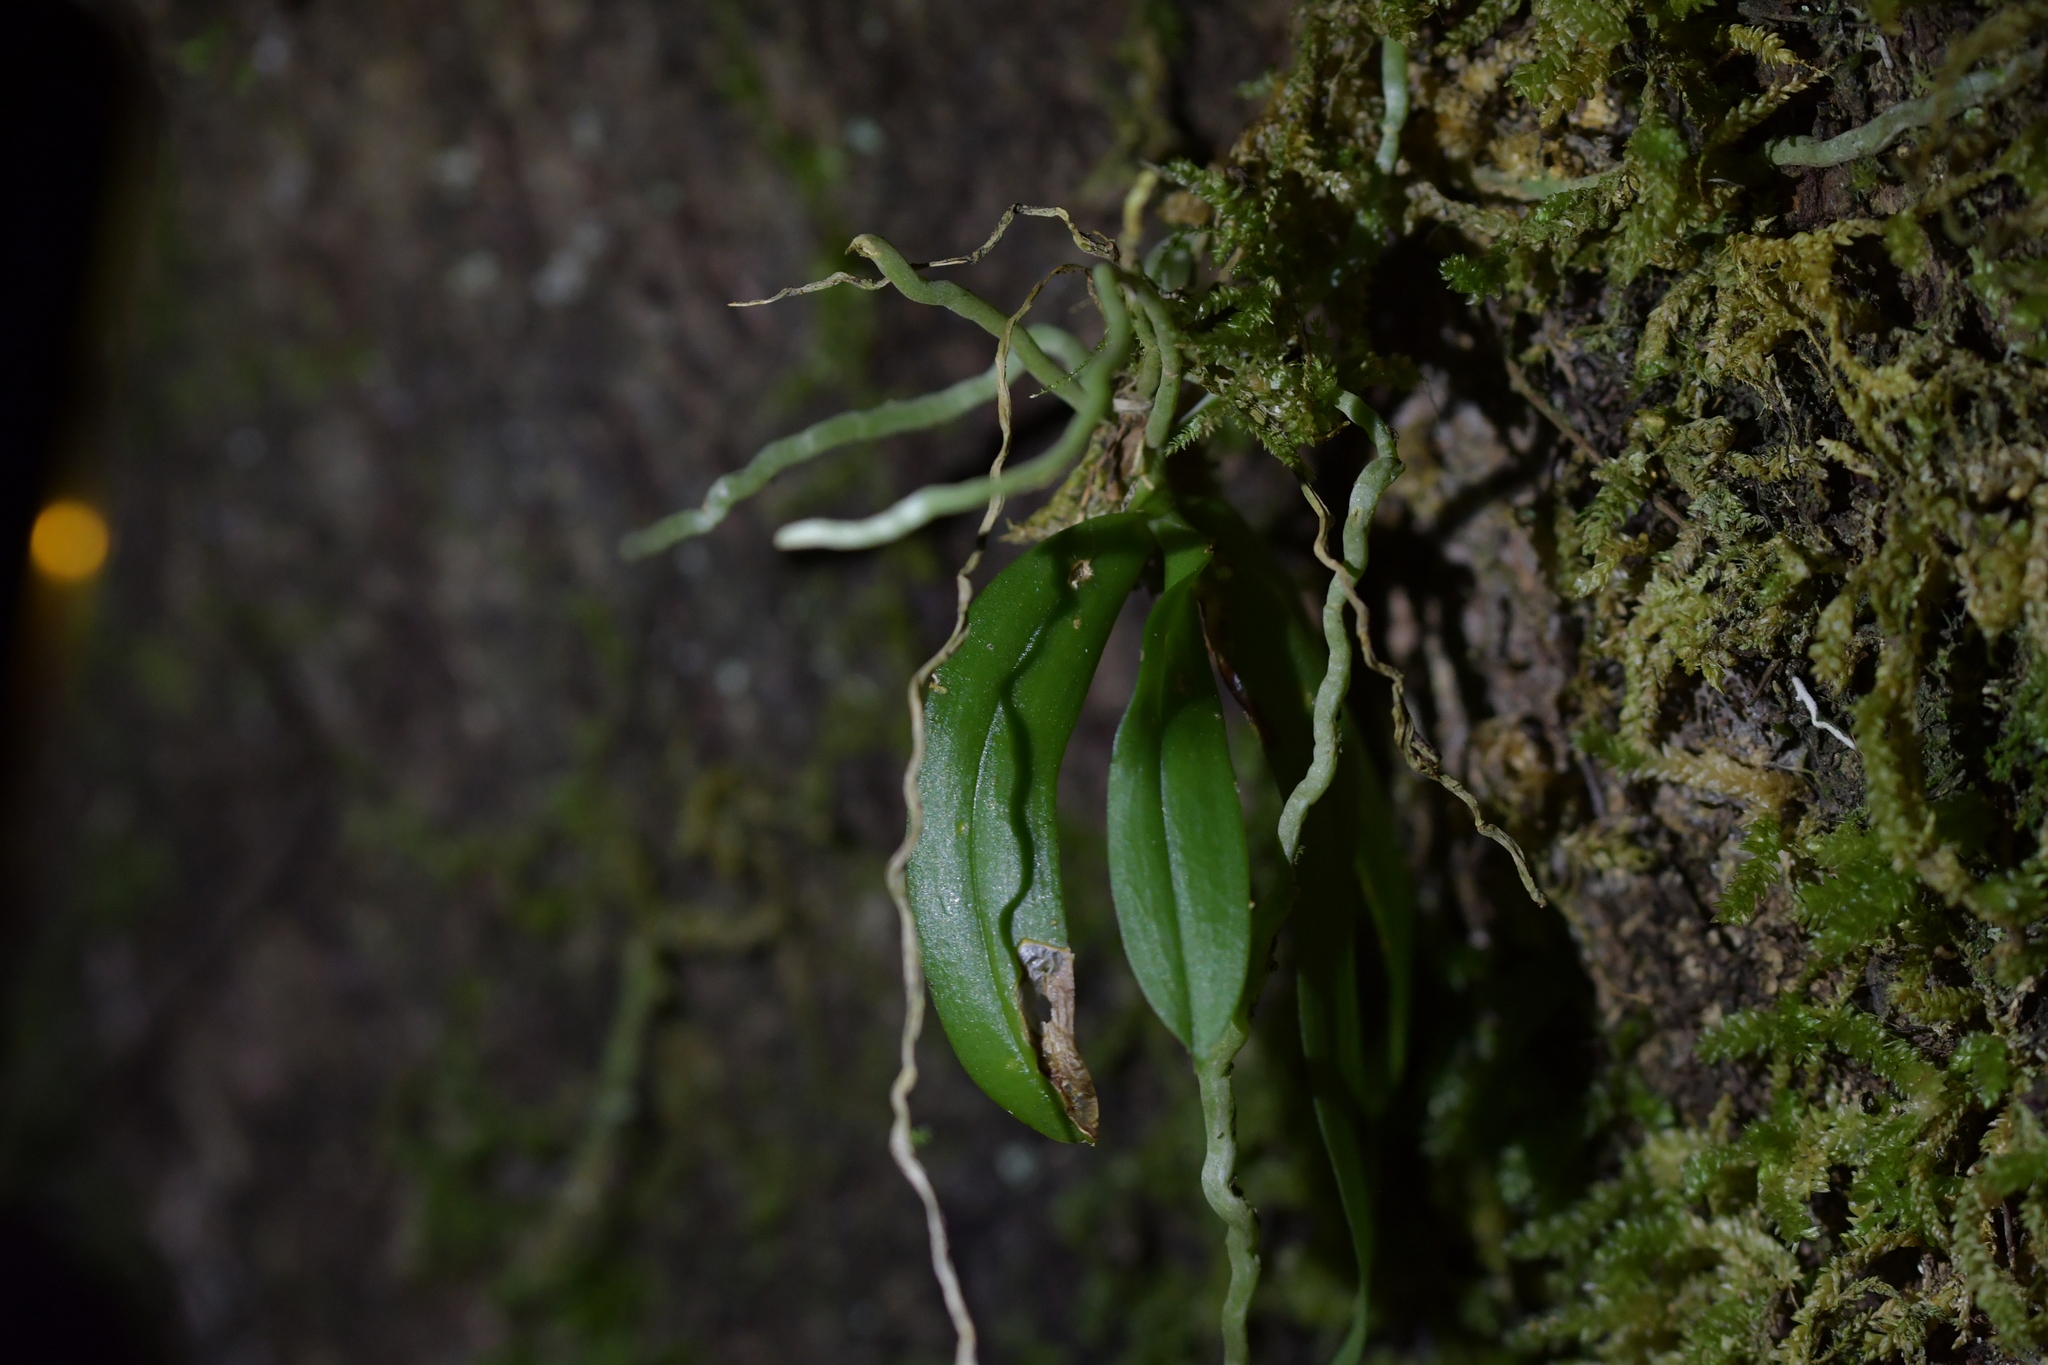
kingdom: Plantae
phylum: Tracheophyta
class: Liliopsida
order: Asparagales
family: Orchidaceae
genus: Drymoanthus
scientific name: Drymoanthus adversus
